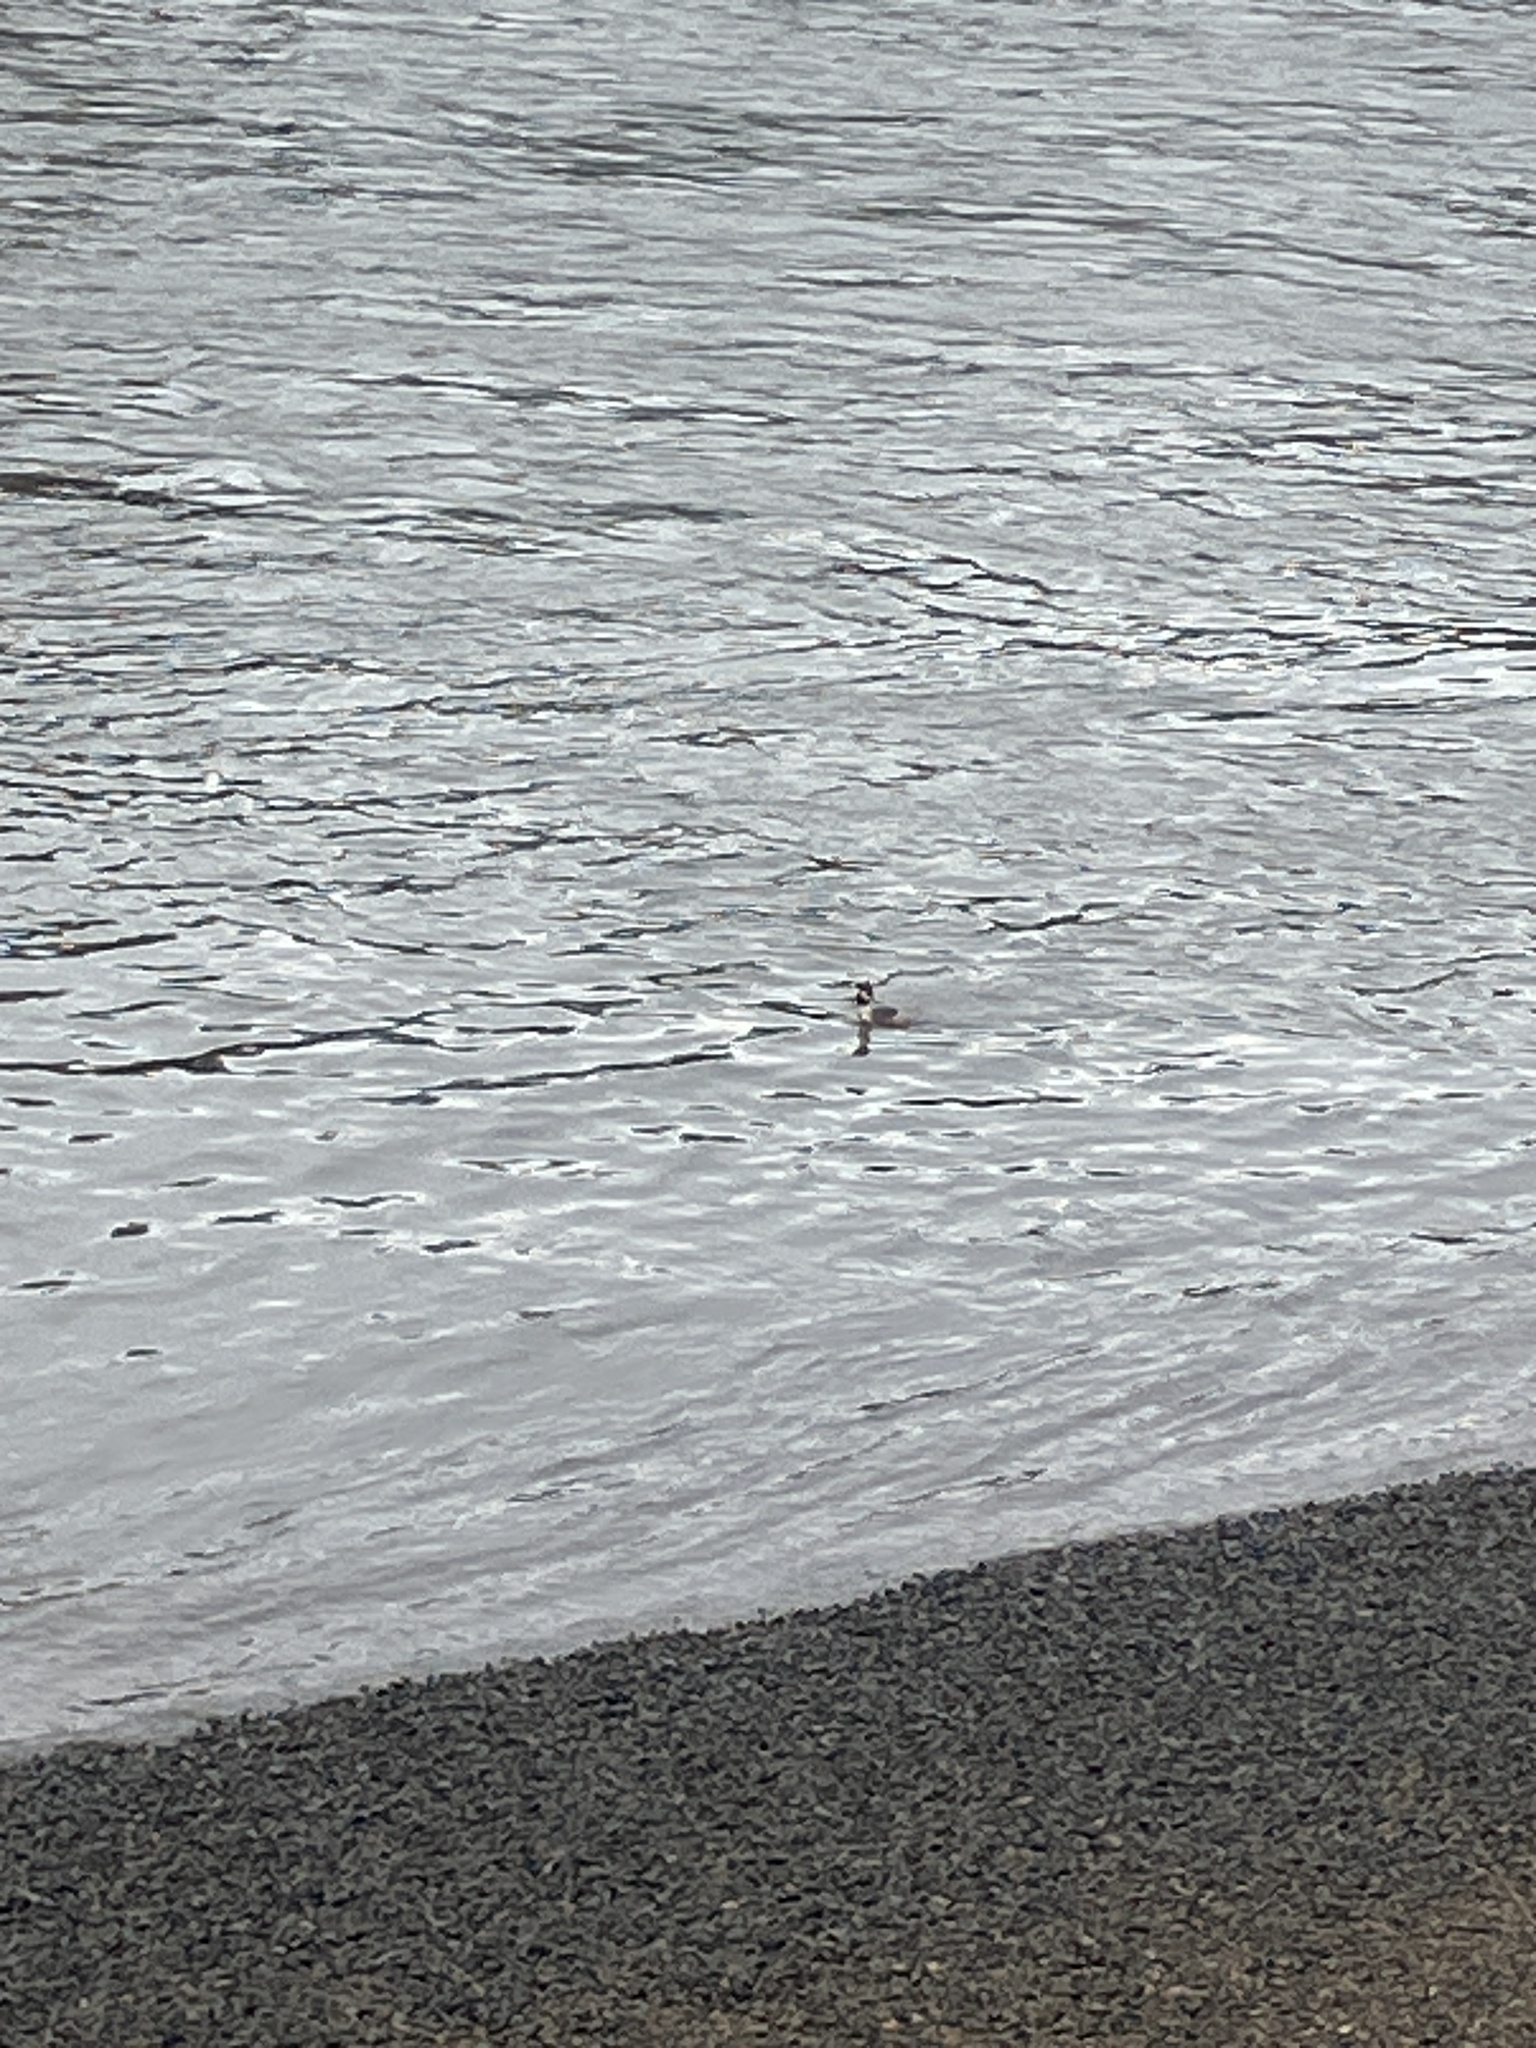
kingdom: Animalia
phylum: Chordata
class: Aves
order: Podicipediformes
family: Podicipedidae
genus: Podiceps
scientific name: Podiceps cristatus
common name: Great crested grebe
